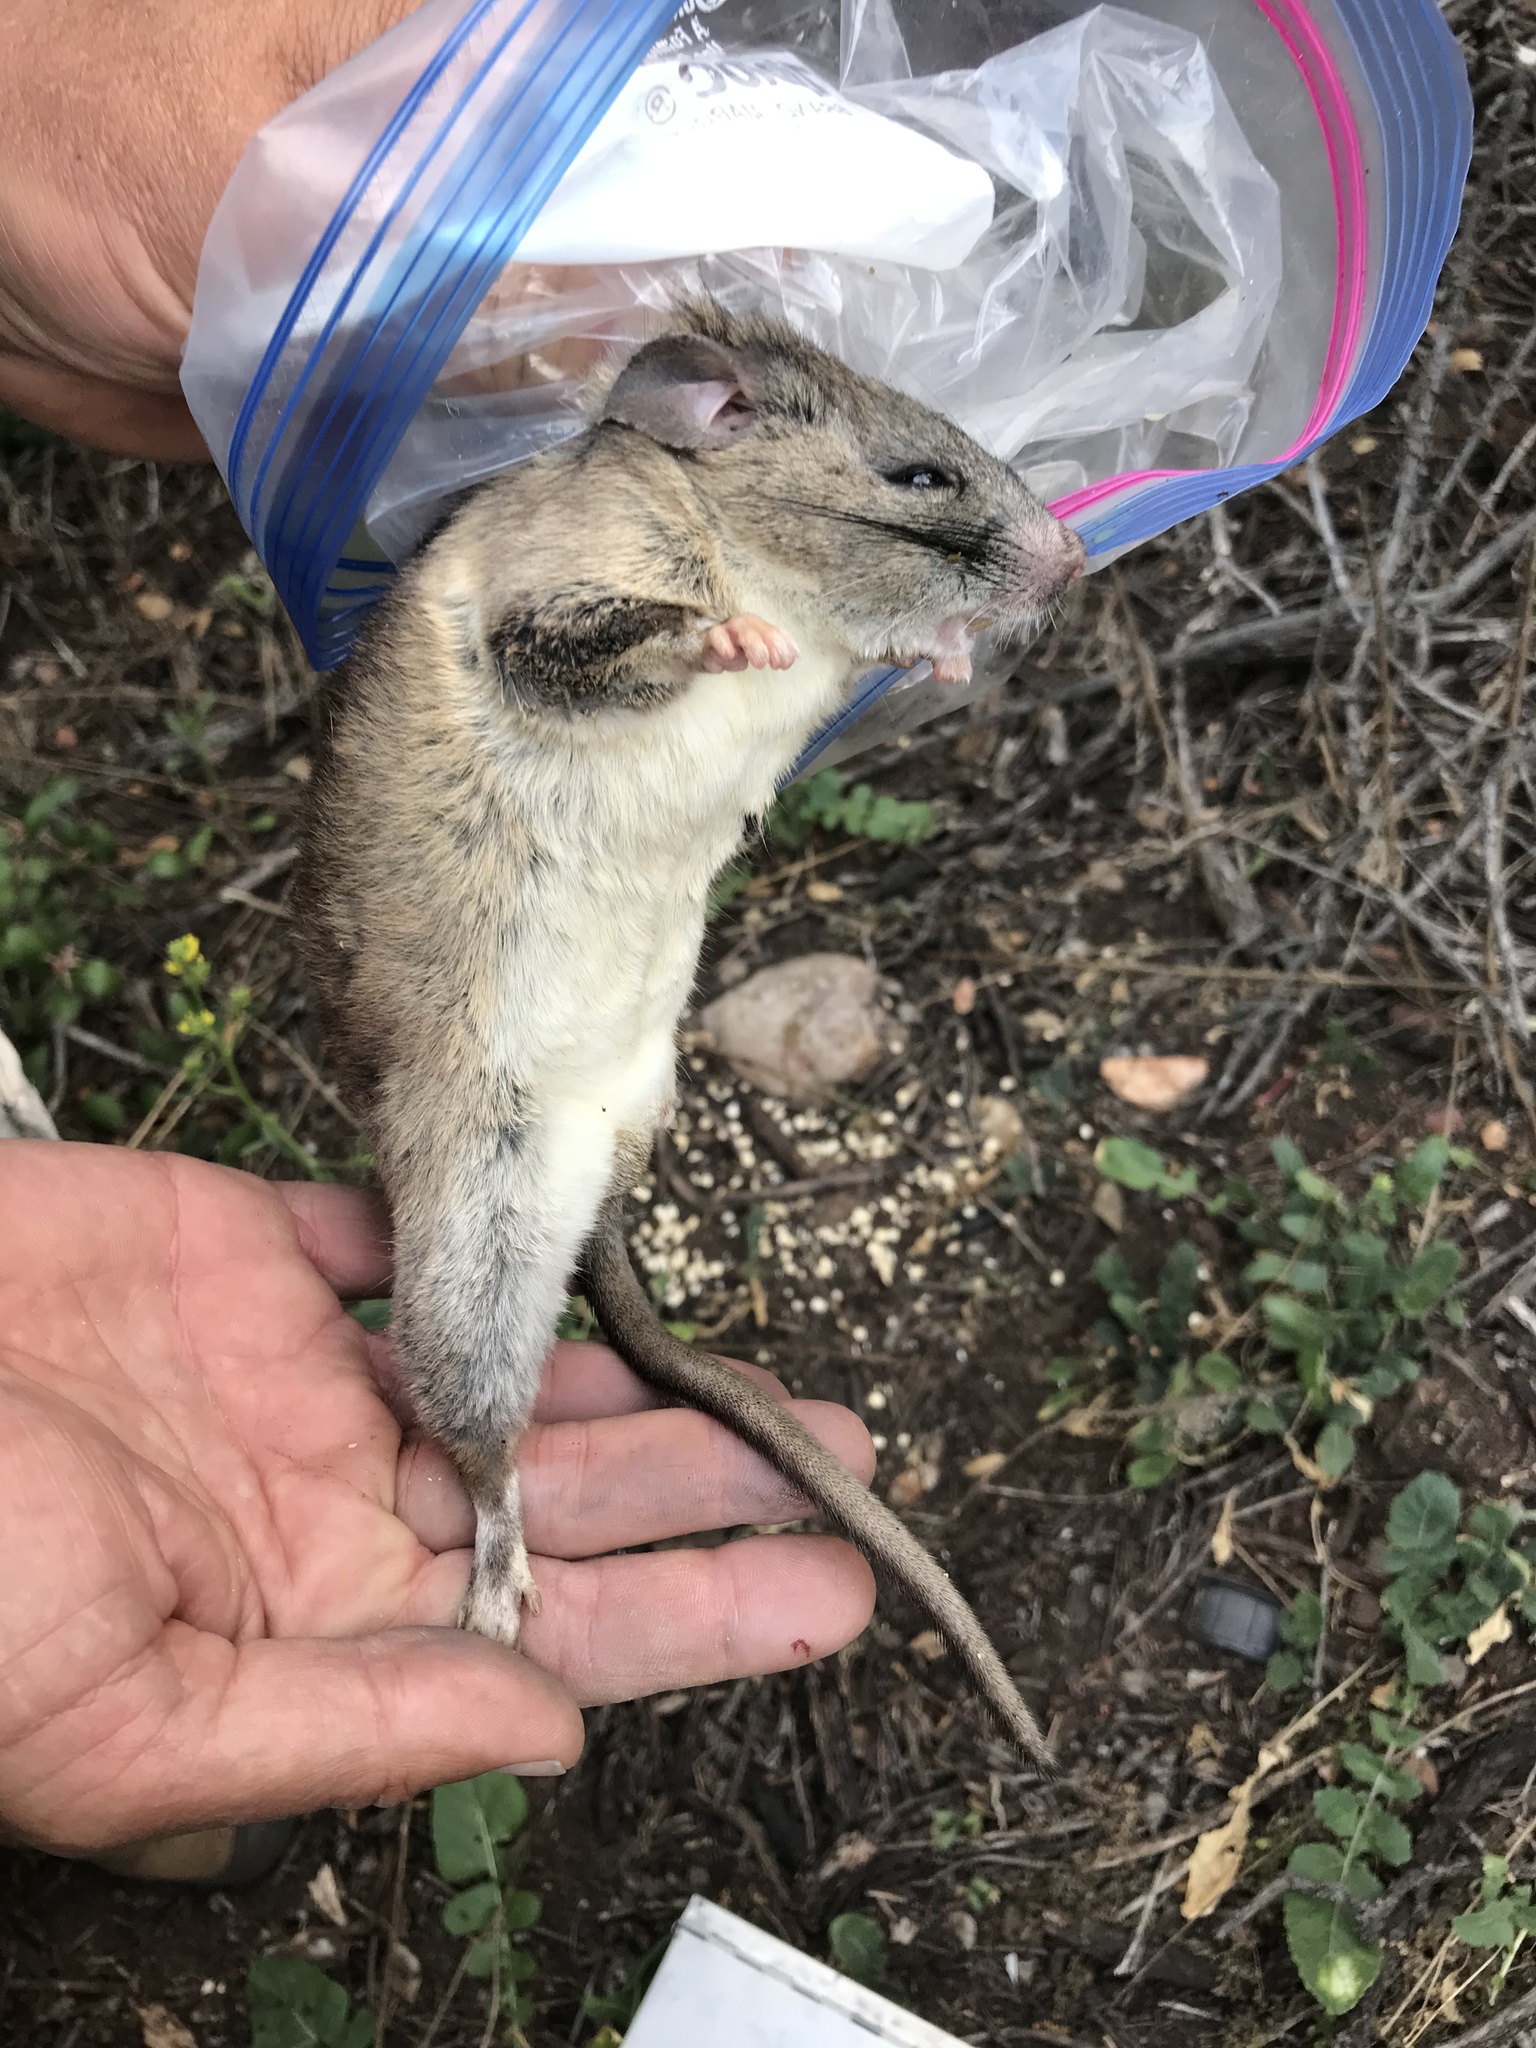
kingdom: Animalia
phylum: Chordata
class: Mammalia
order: Rodentia
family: Cricetidae
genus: Neotoma
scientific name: Neotoma macrotis
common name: Big-eared woodrat
